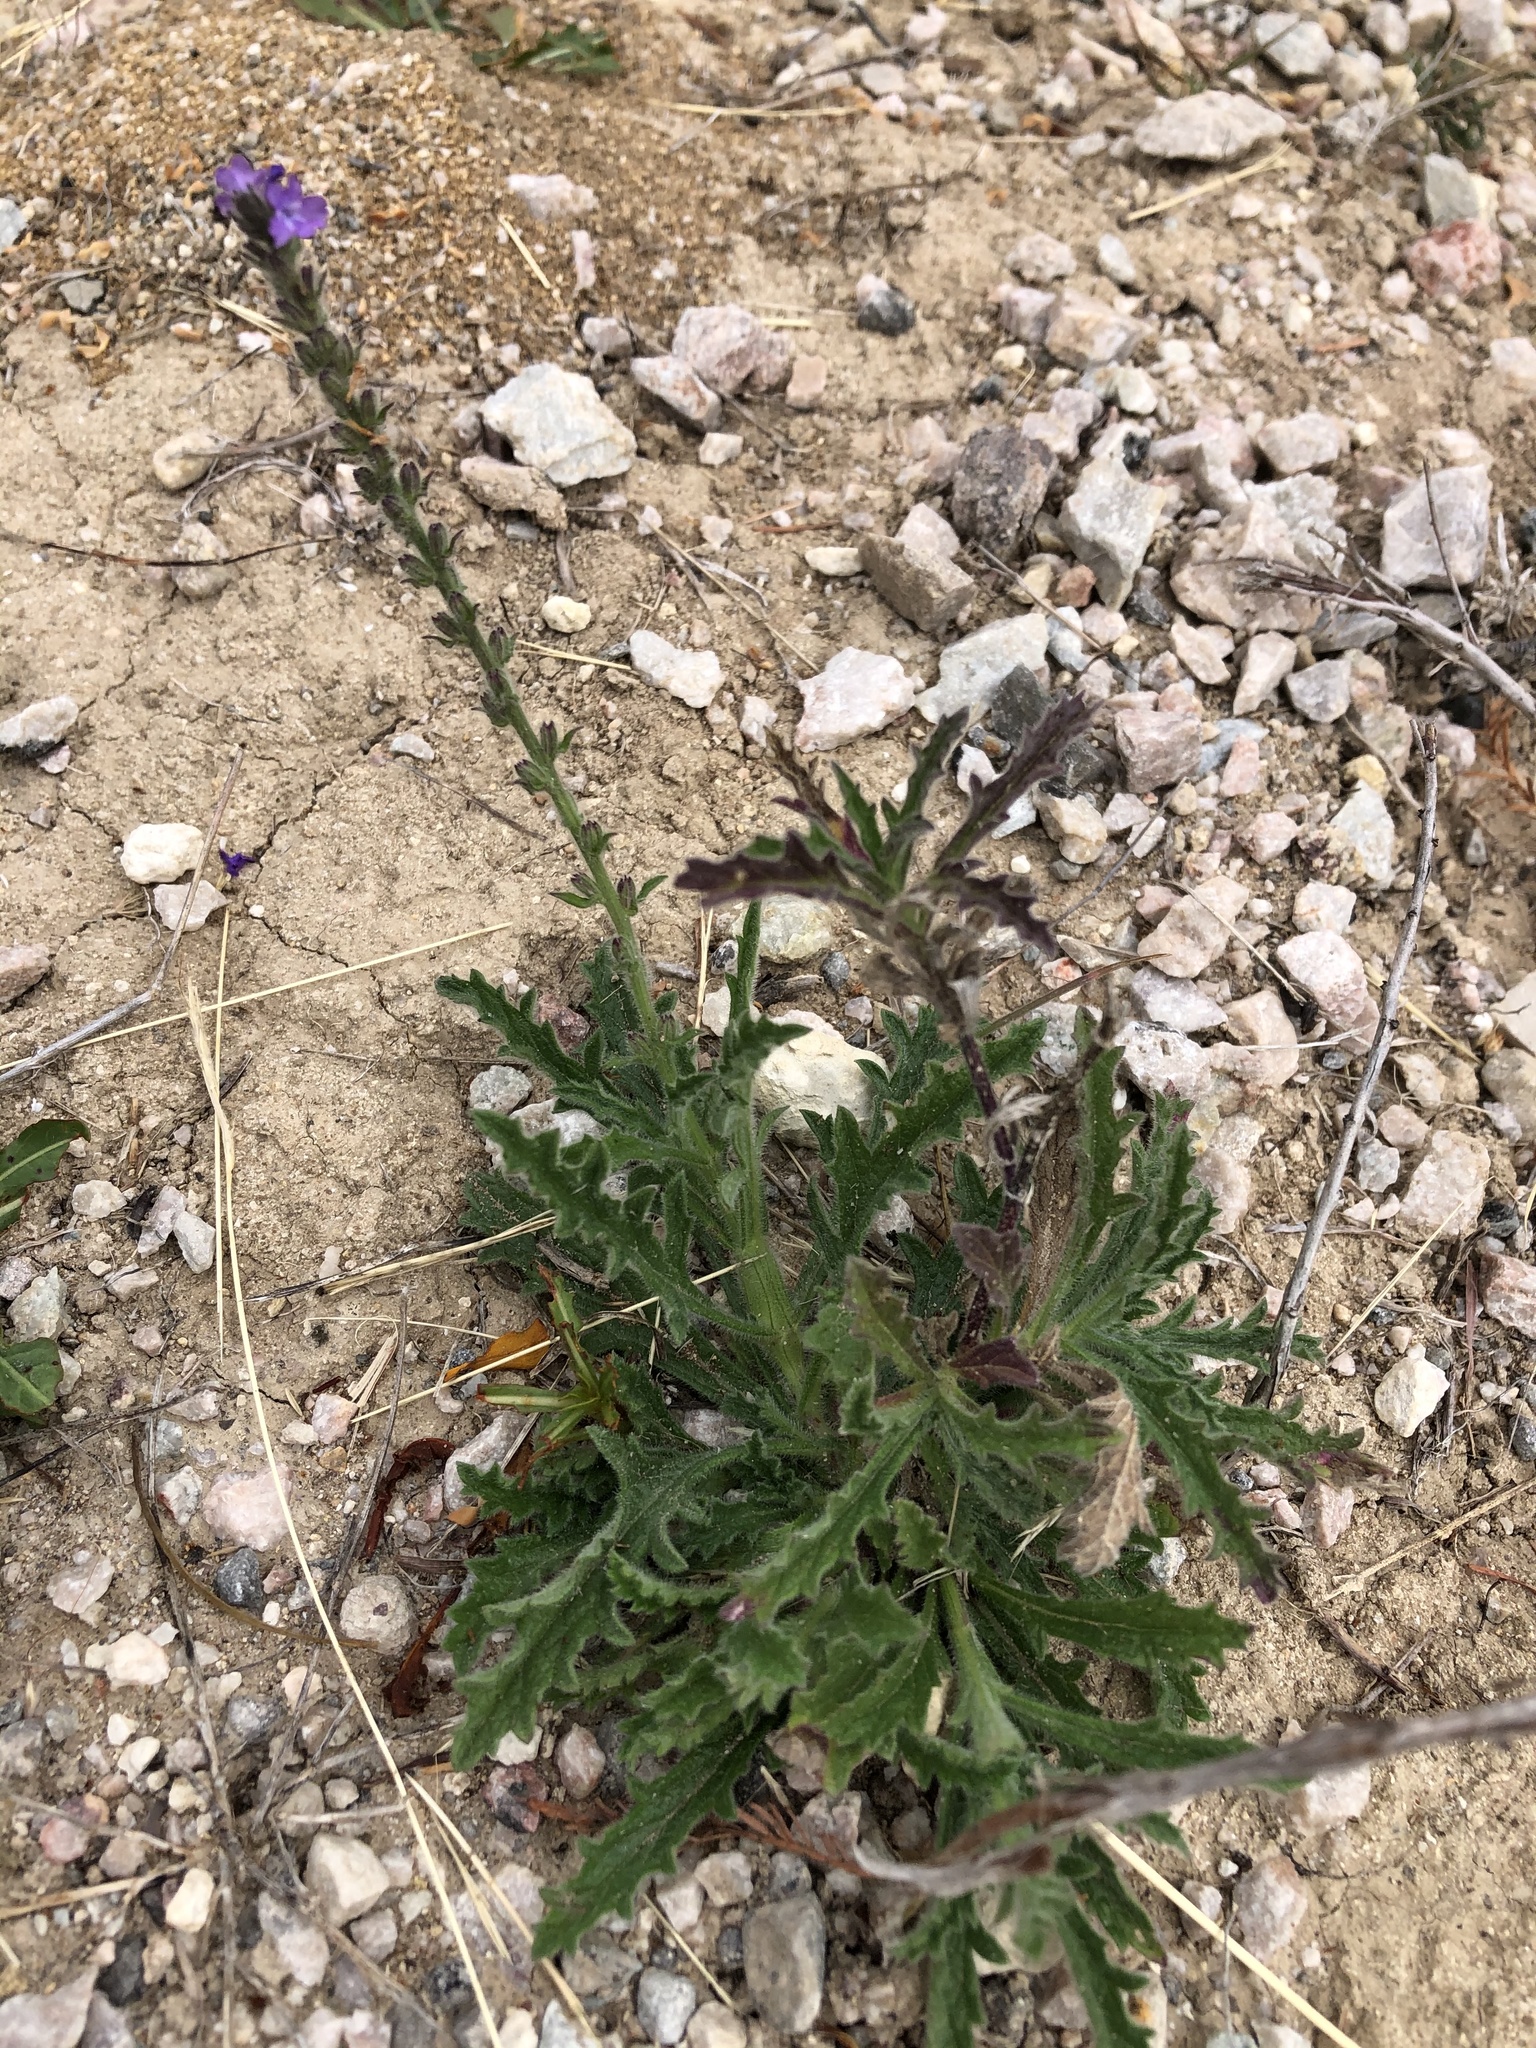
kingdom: Plantae
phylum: Tracheophyta
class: Magnoliopsida
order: Lamiales
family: Verbenaceae
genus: Verbena
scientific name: Verbena canescens
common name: Gray vervain
